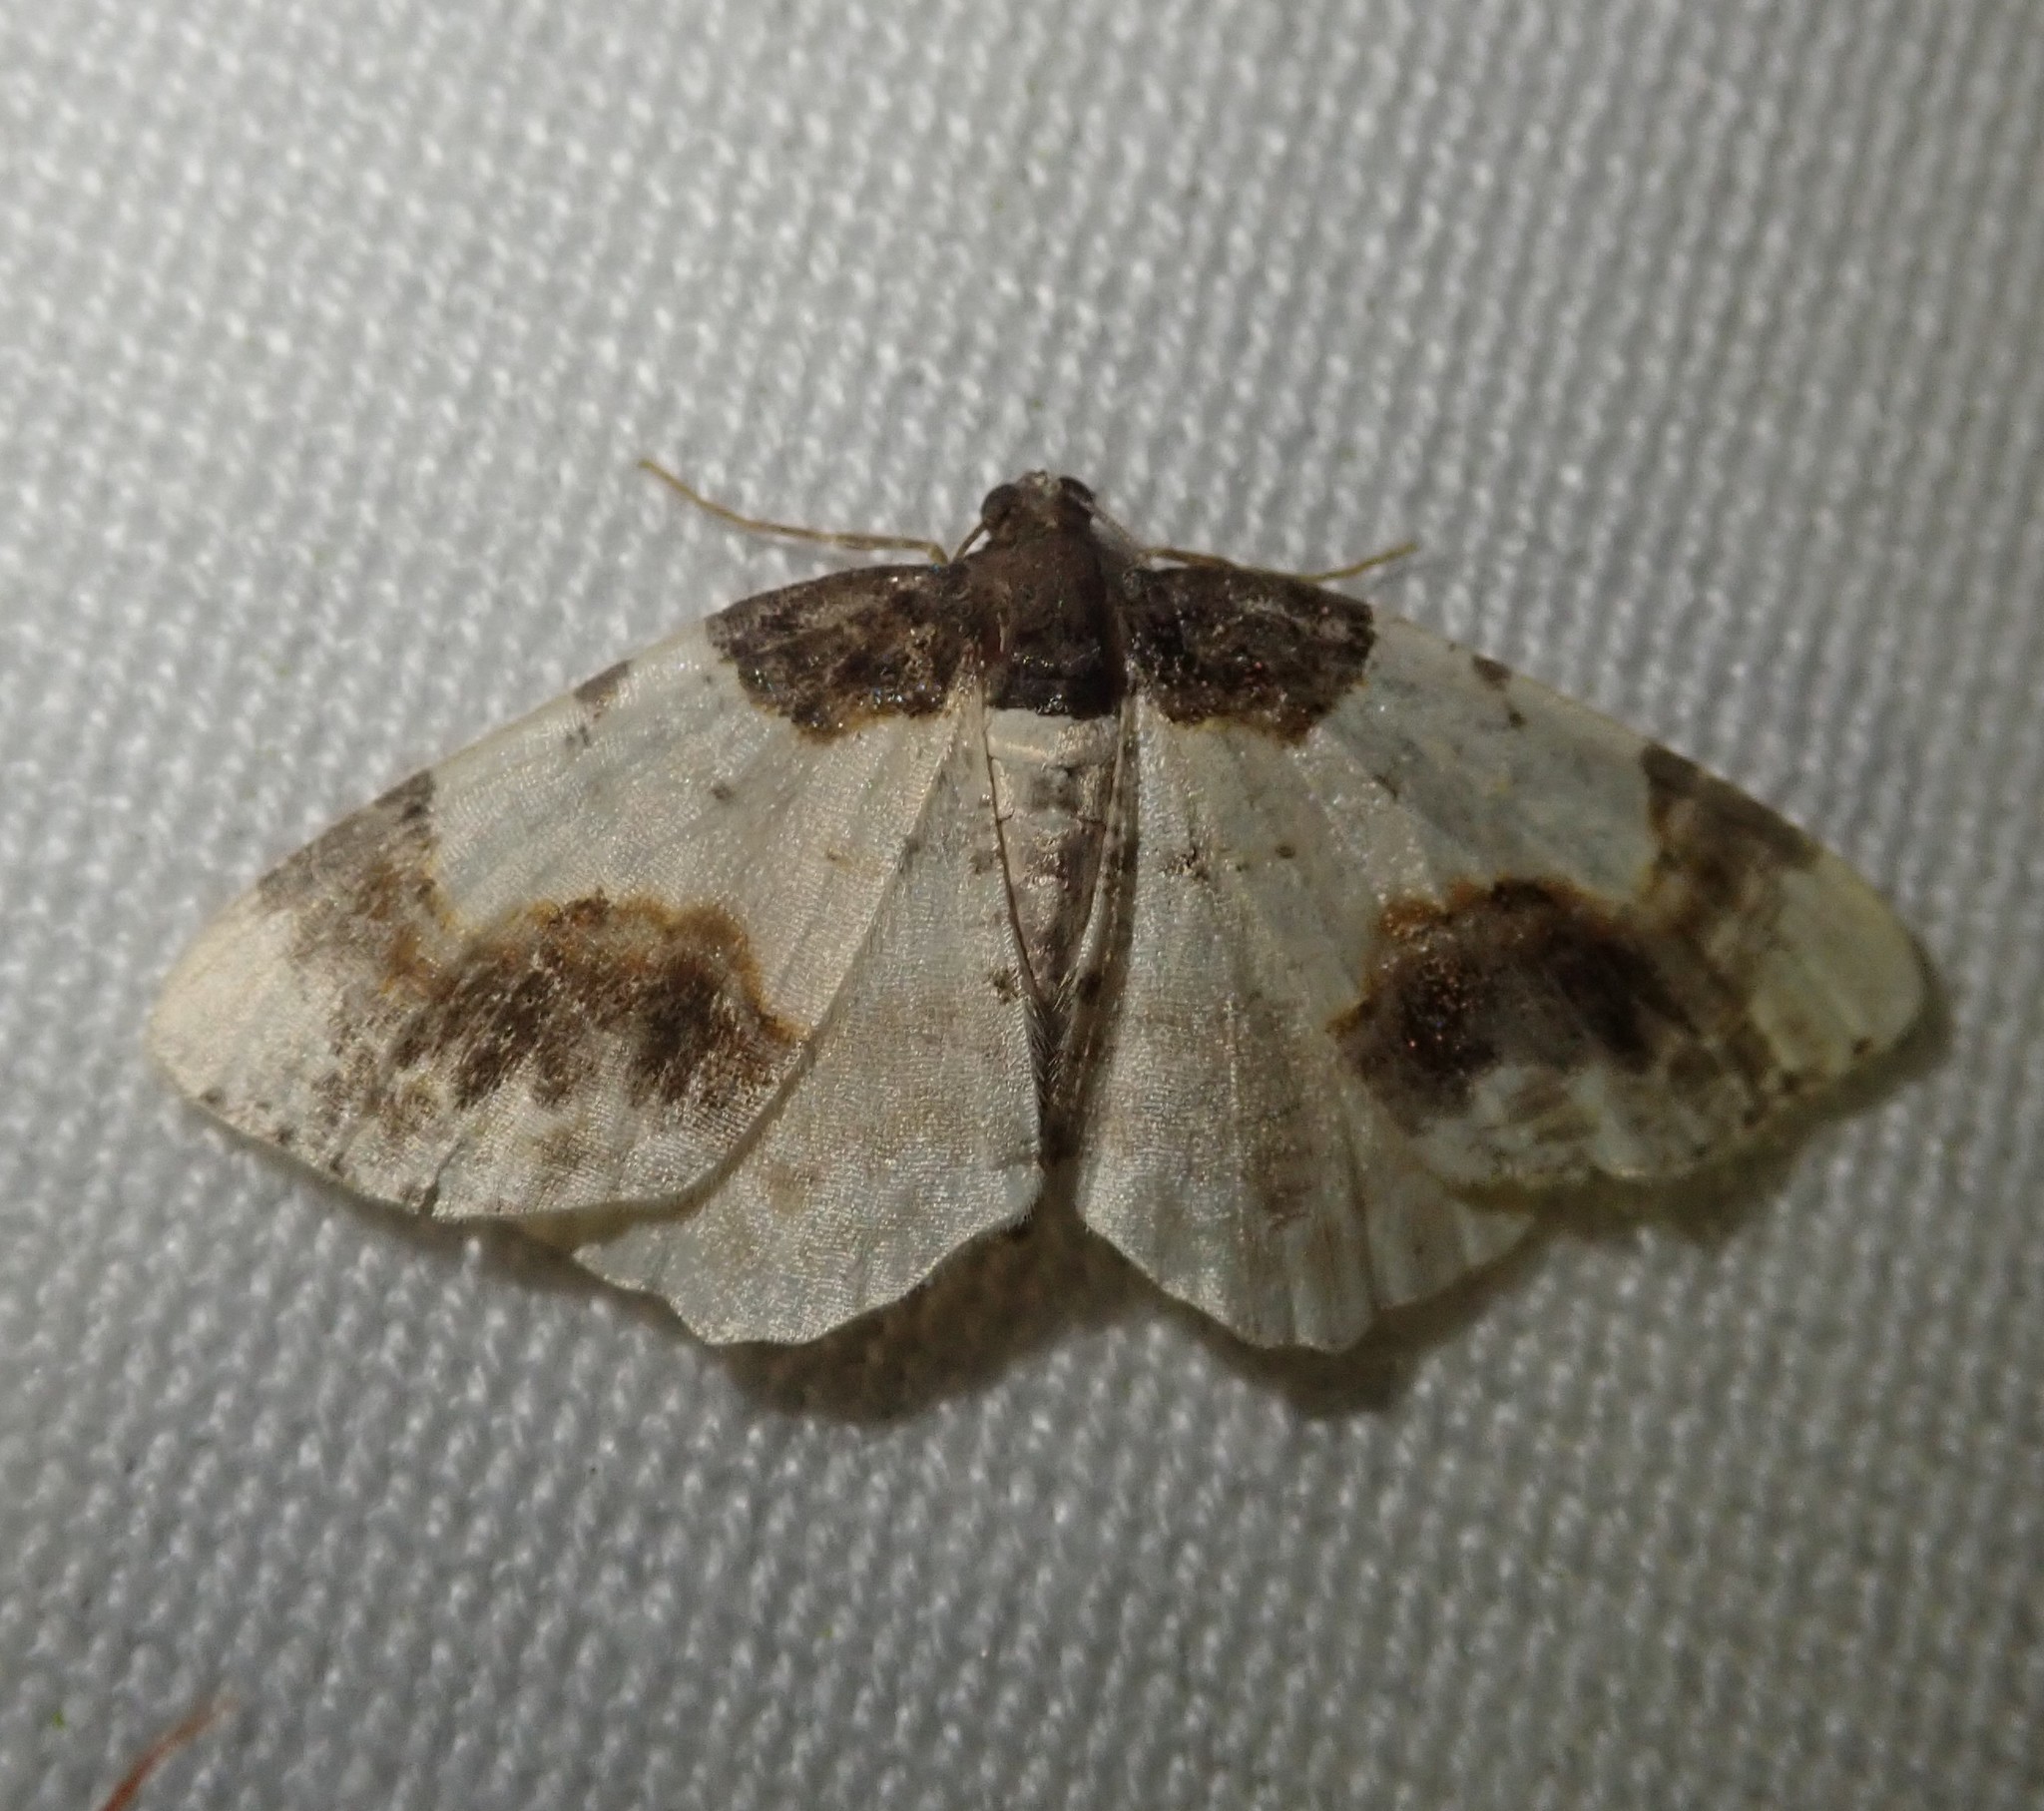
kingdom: Animalia
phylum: Arthropoda
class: Insecta
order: Lepidoptera
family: Geometridae
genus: Ligdia
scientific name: Ligdia adustata
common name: Scorched carpet
